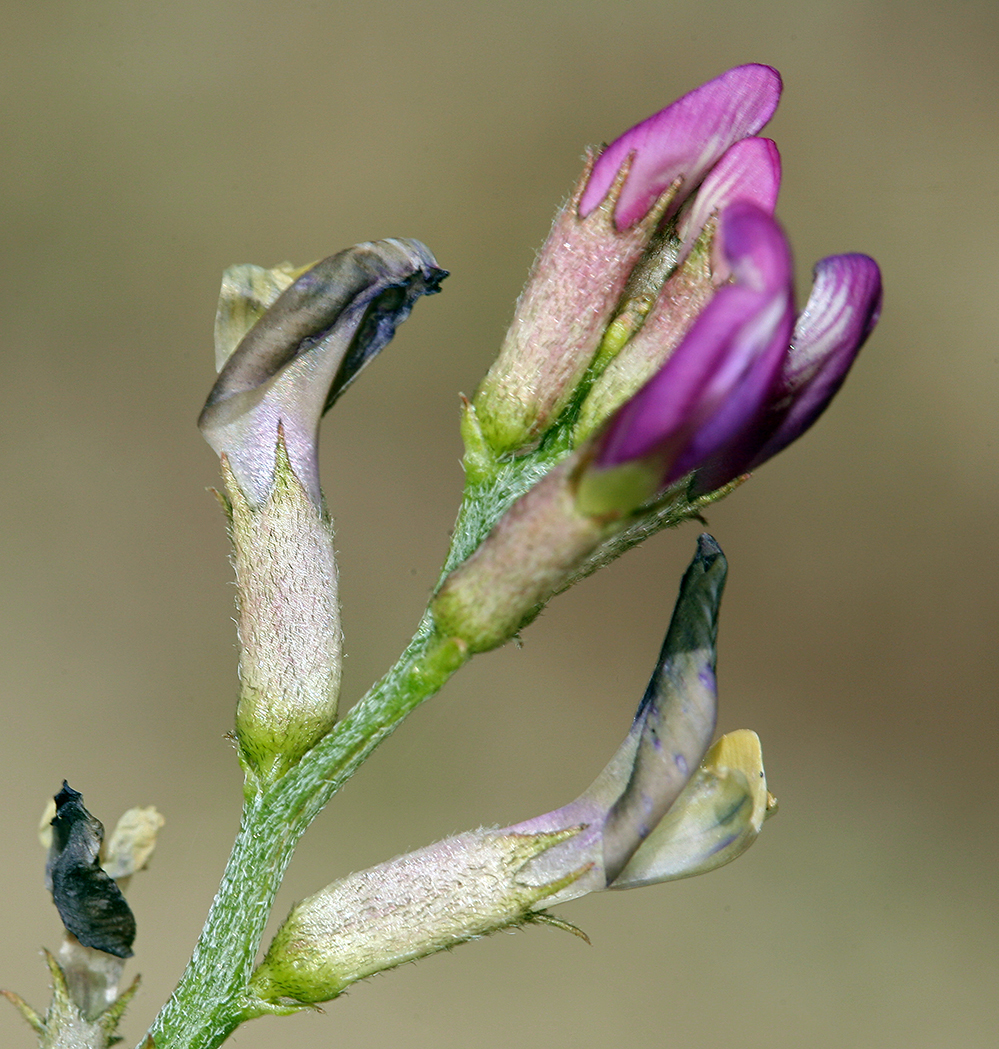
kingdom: Plantae
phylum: Tracheophyta
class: Magnoliopsida
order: Fabales
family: Fabaceae
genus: Astragalus
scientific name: Astragalus casei
